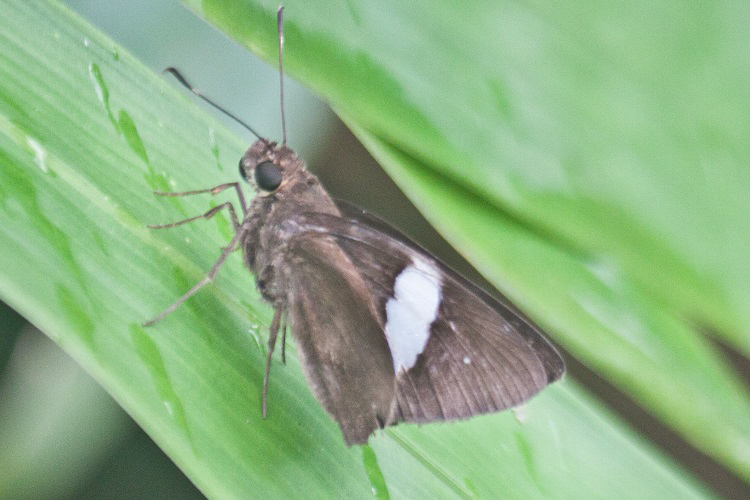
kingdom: Animalia
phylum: Arthropoda
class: Insecta
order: Lepidoptera
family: Hesperiidae
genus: Notocrypta
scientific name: Notocrypta clavata
